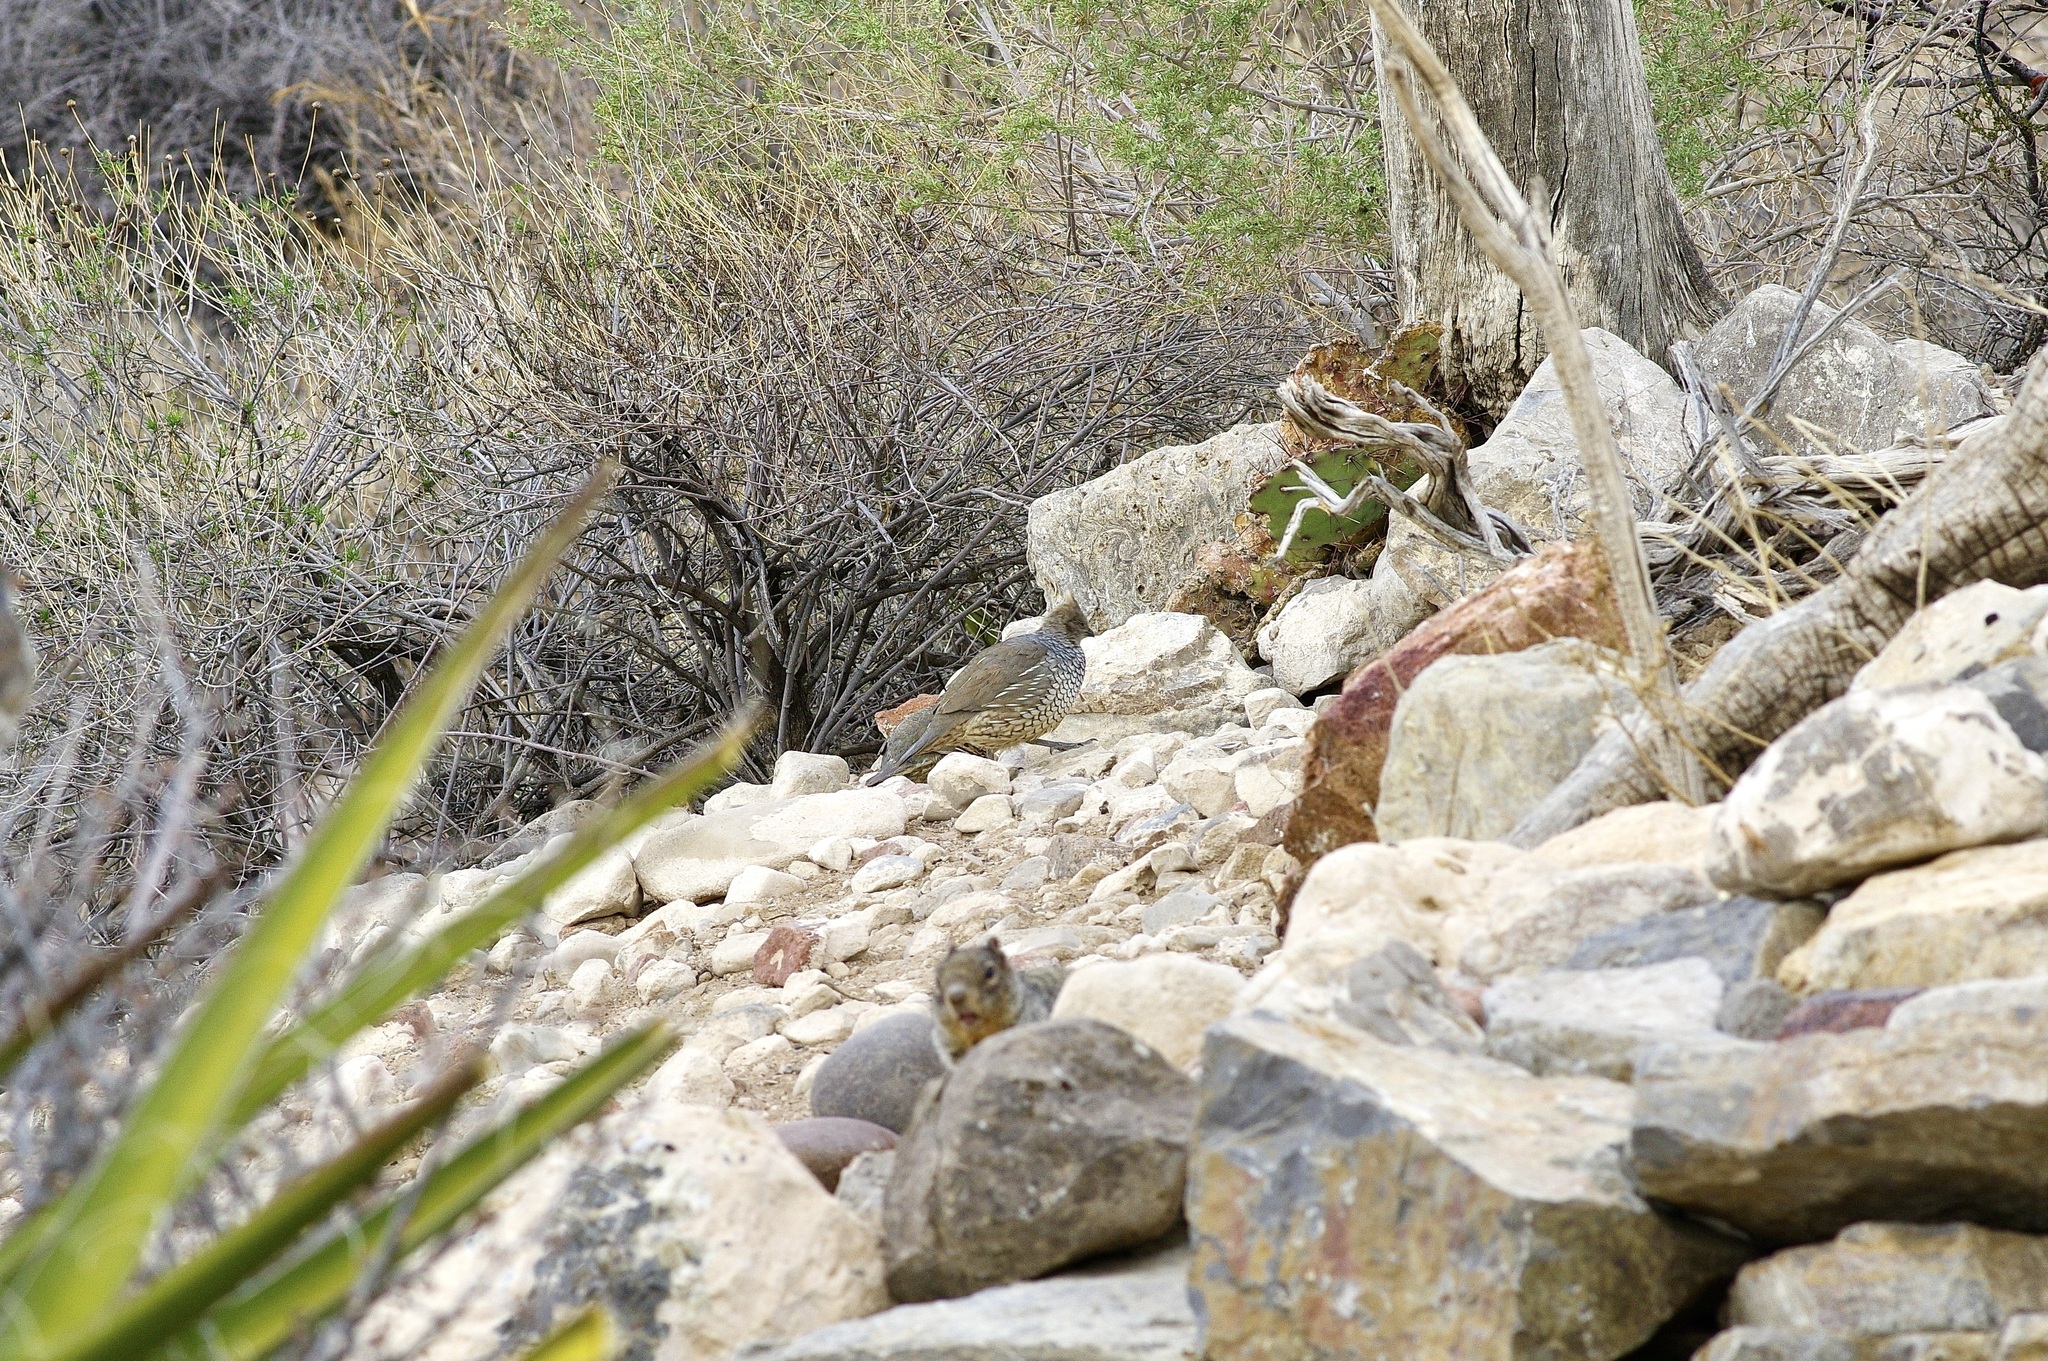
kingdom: Animalia
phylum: Chordata
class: Aves
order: Galliformes
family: Odontophoridae
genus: Callipepla
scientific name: Callipepla squamata
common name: Scaled quail
